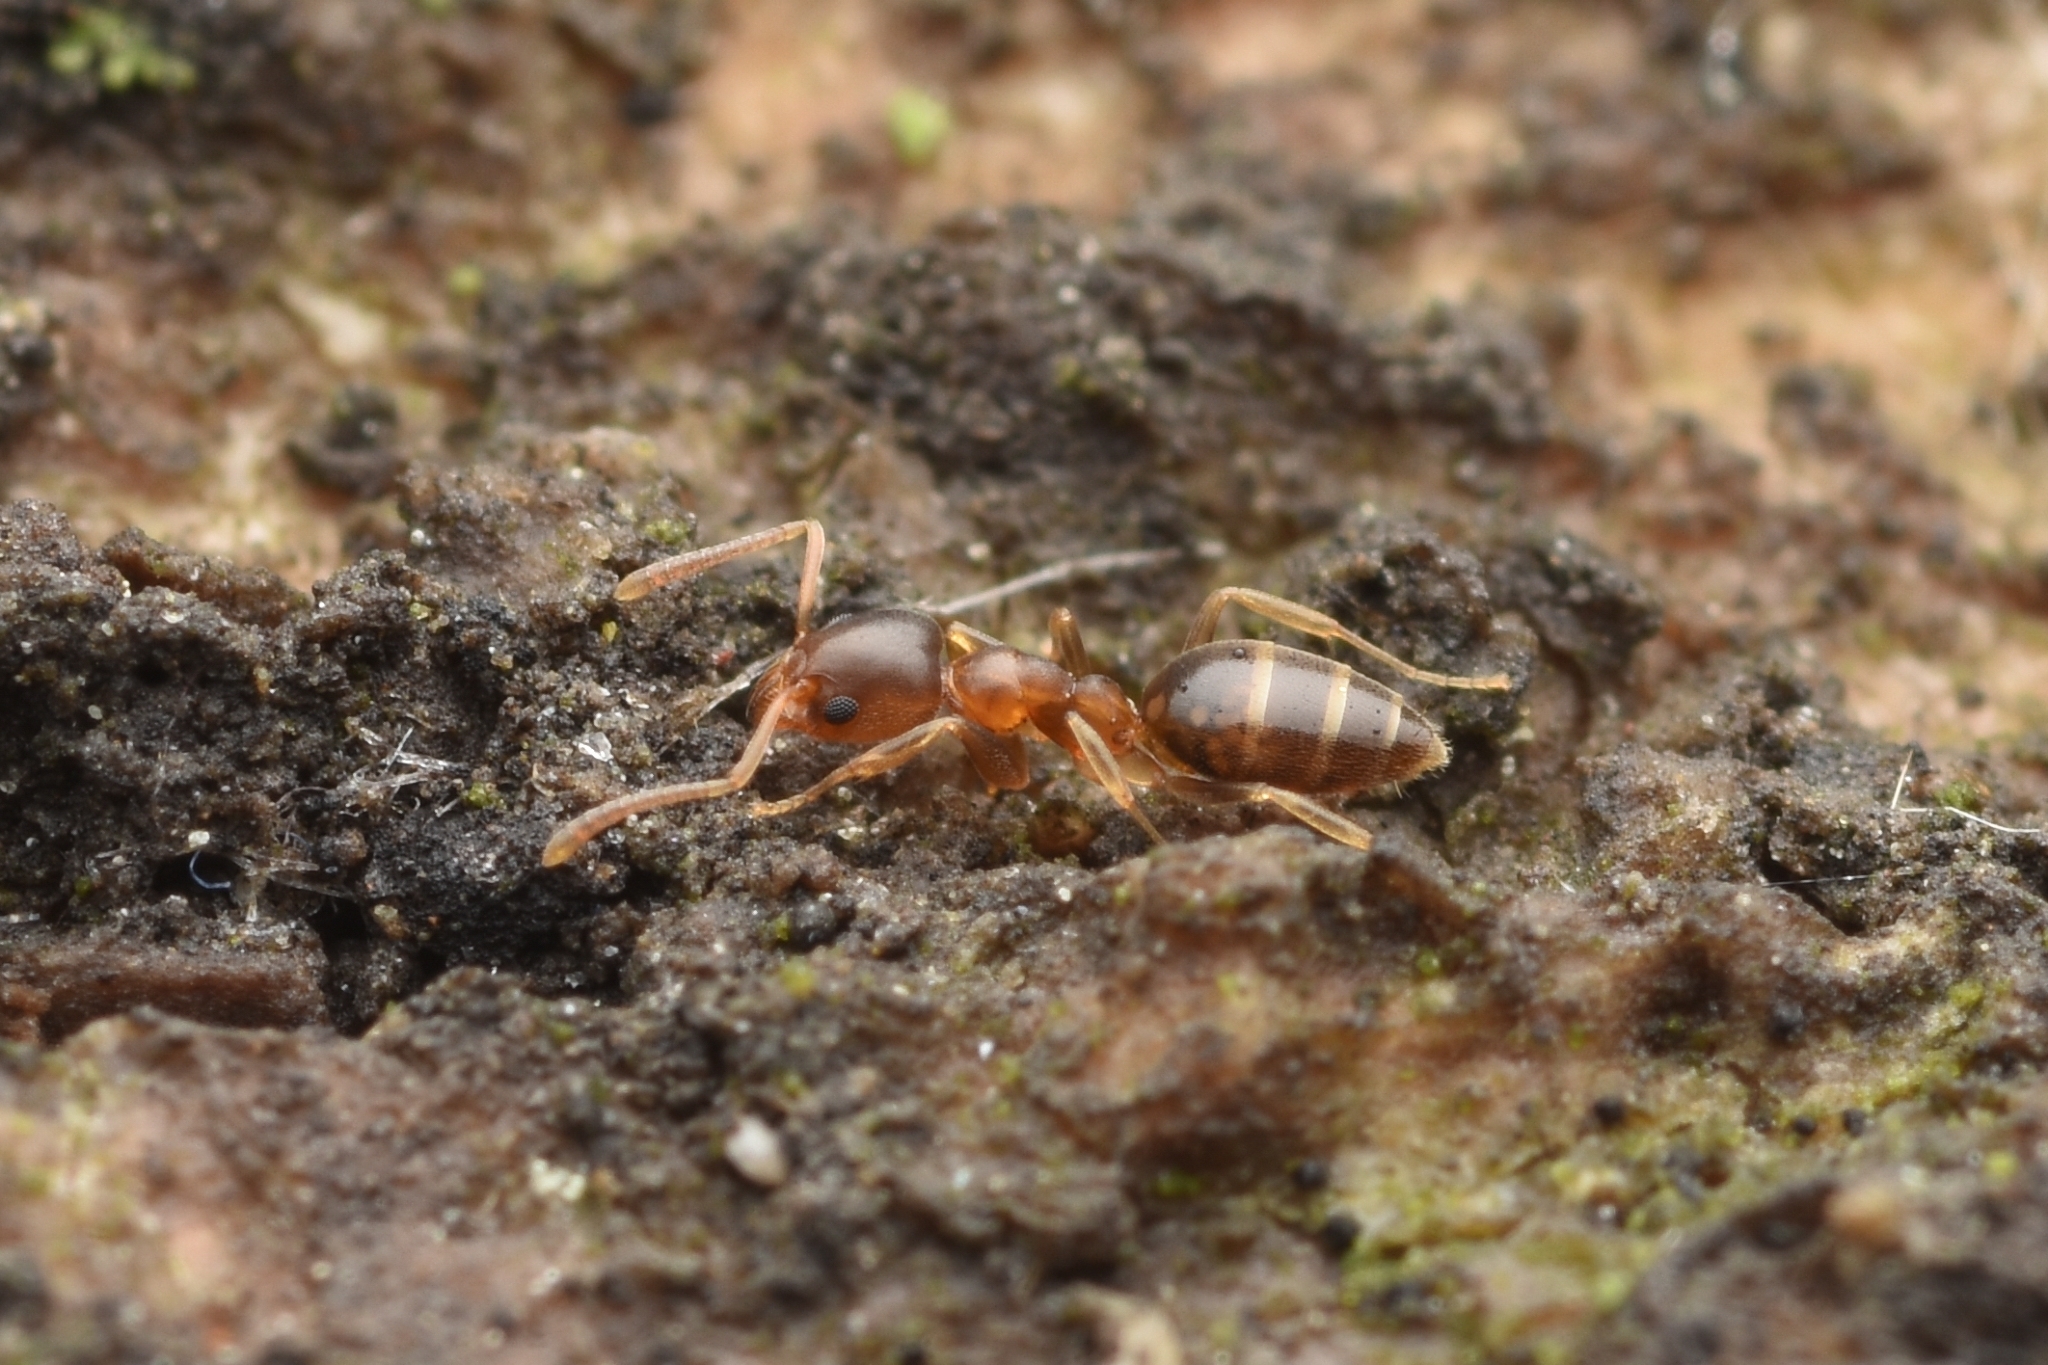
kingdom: Animalia
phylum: Arthropoda
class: Insecta
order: Hymenoptera
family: Formicidae
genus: Technomyrmex
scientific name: Technomyrmex gibbosus
